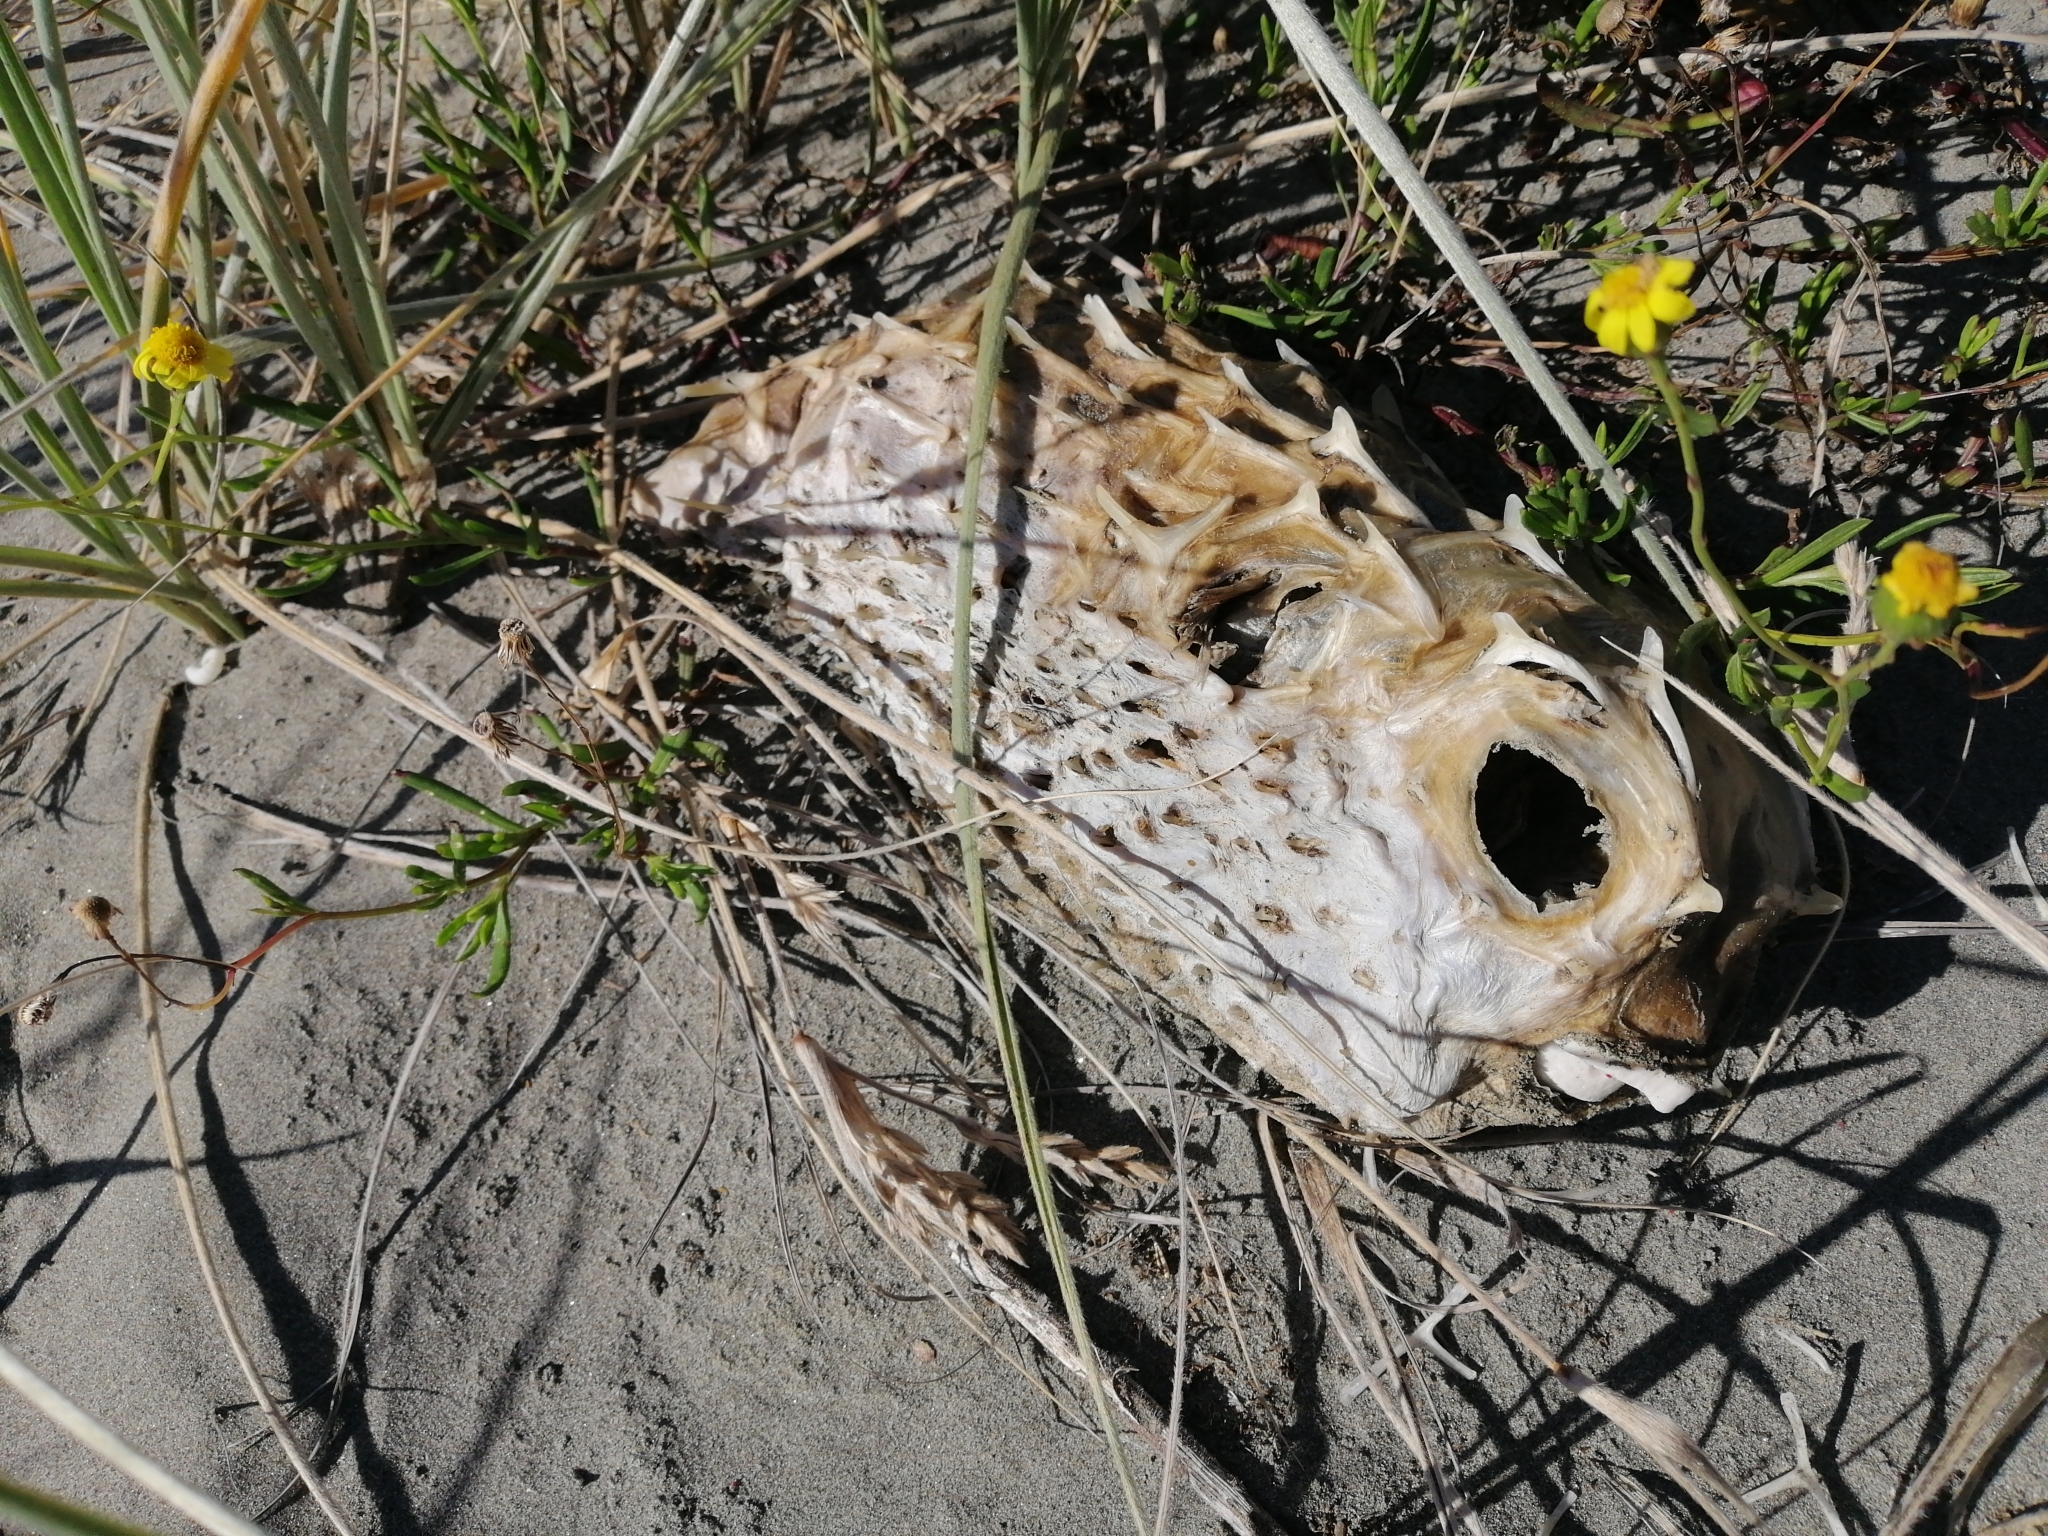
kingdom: Animalia
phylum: Chordata
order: Tetraodontiformes
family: Diodontidae
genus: Allomycterus
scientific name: Allomycterus pilatus
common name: No common name
